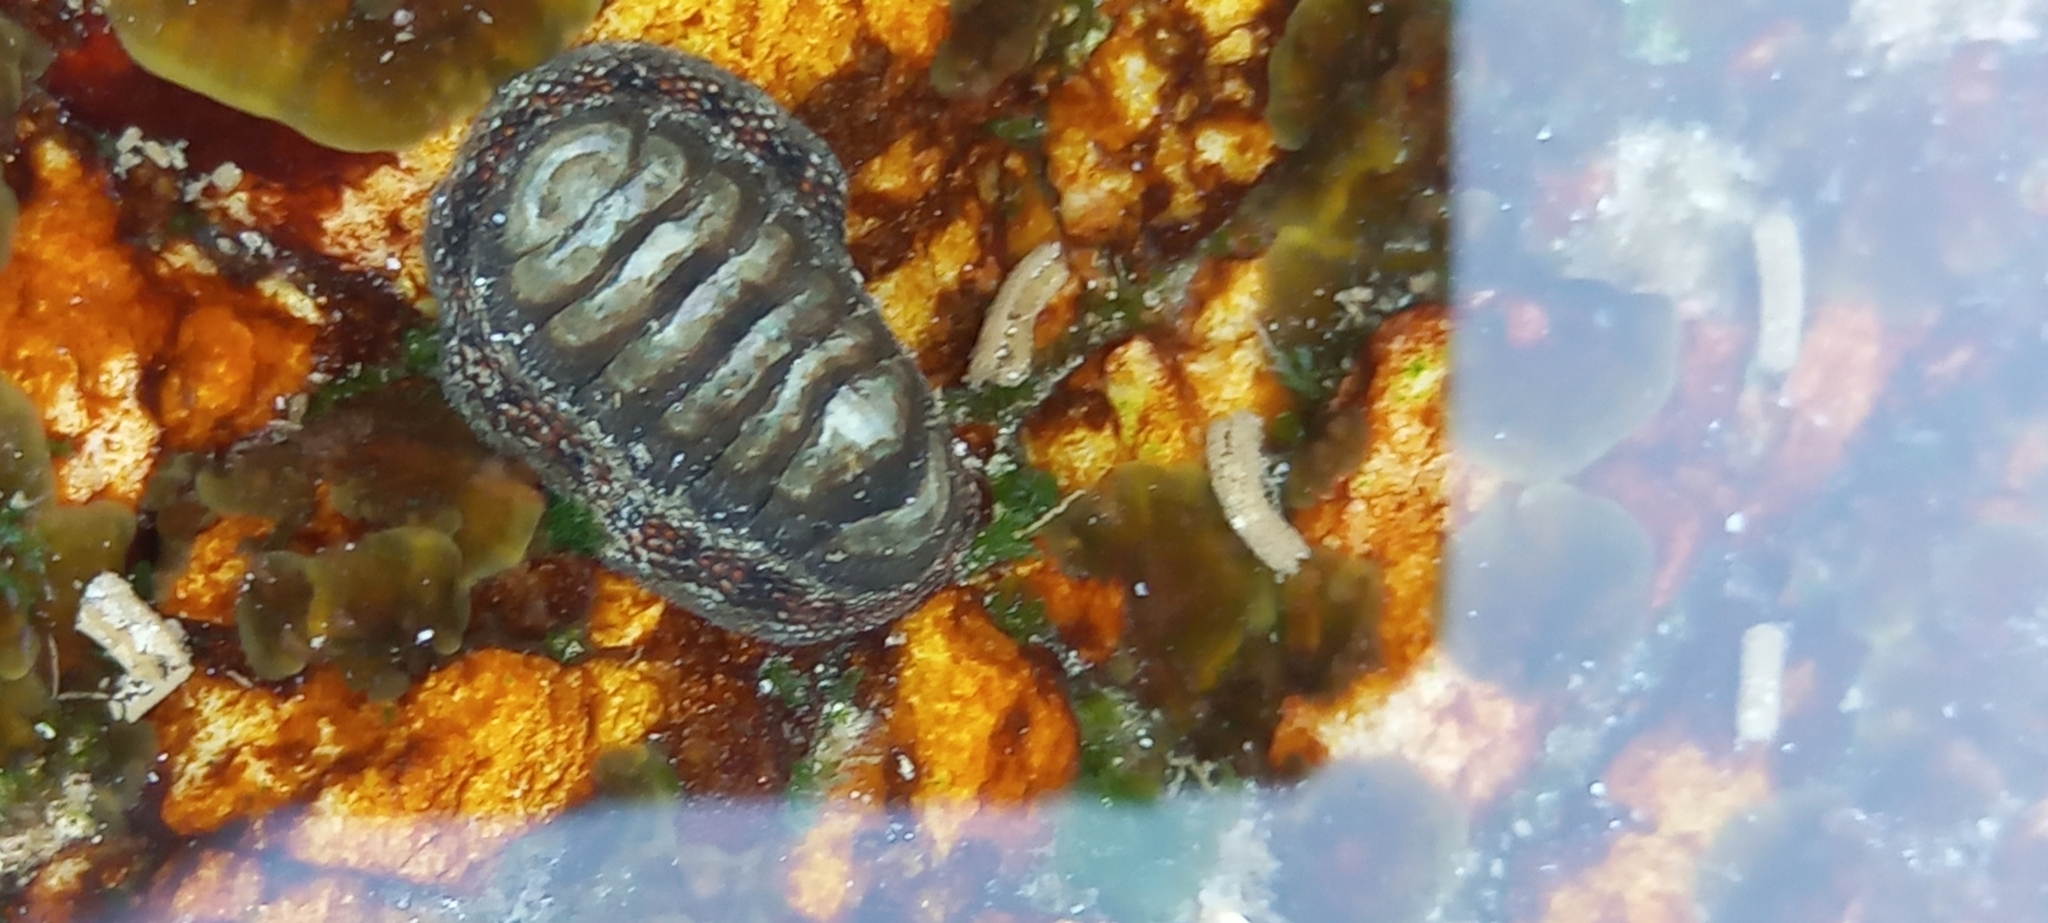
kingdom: Animalia
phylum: Mollusca
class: Polyplacophora
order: Chitonida
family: Chitonidae
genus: Radsia
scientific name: Radsia nigrovirescens
